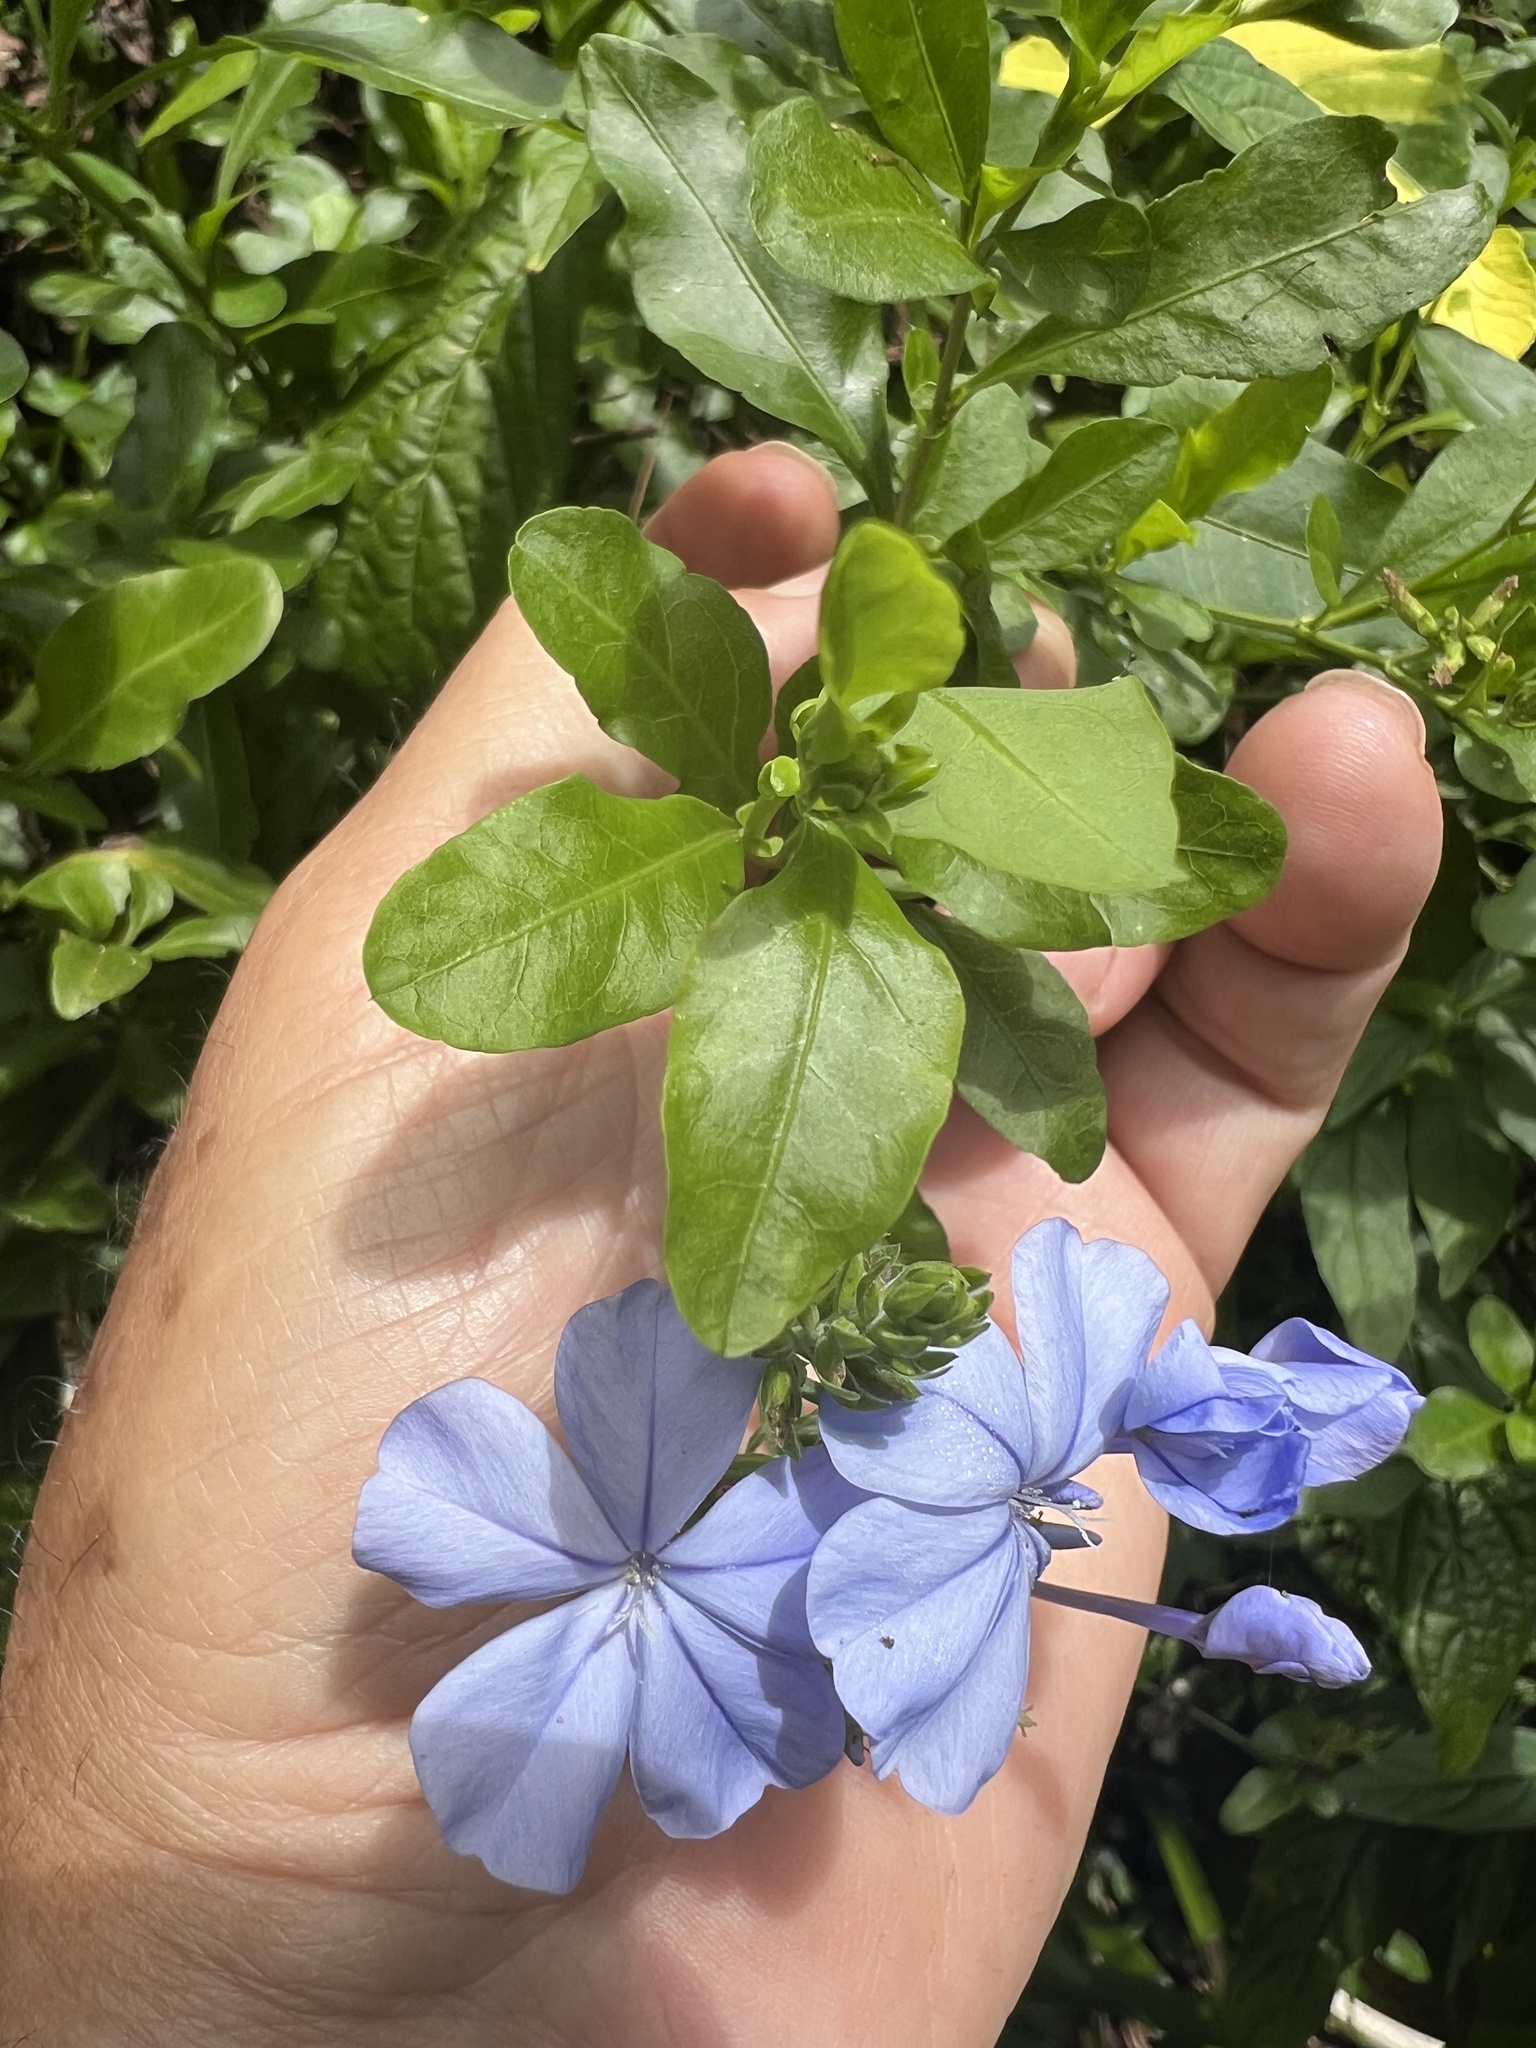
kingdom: Plantae
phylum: Tracheophyta
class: Magnoliopsida
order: Caryophyllales
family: Plumbaginaceae
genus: Plumbago
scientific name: Plumbago auriculata
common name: Cape leadwort
